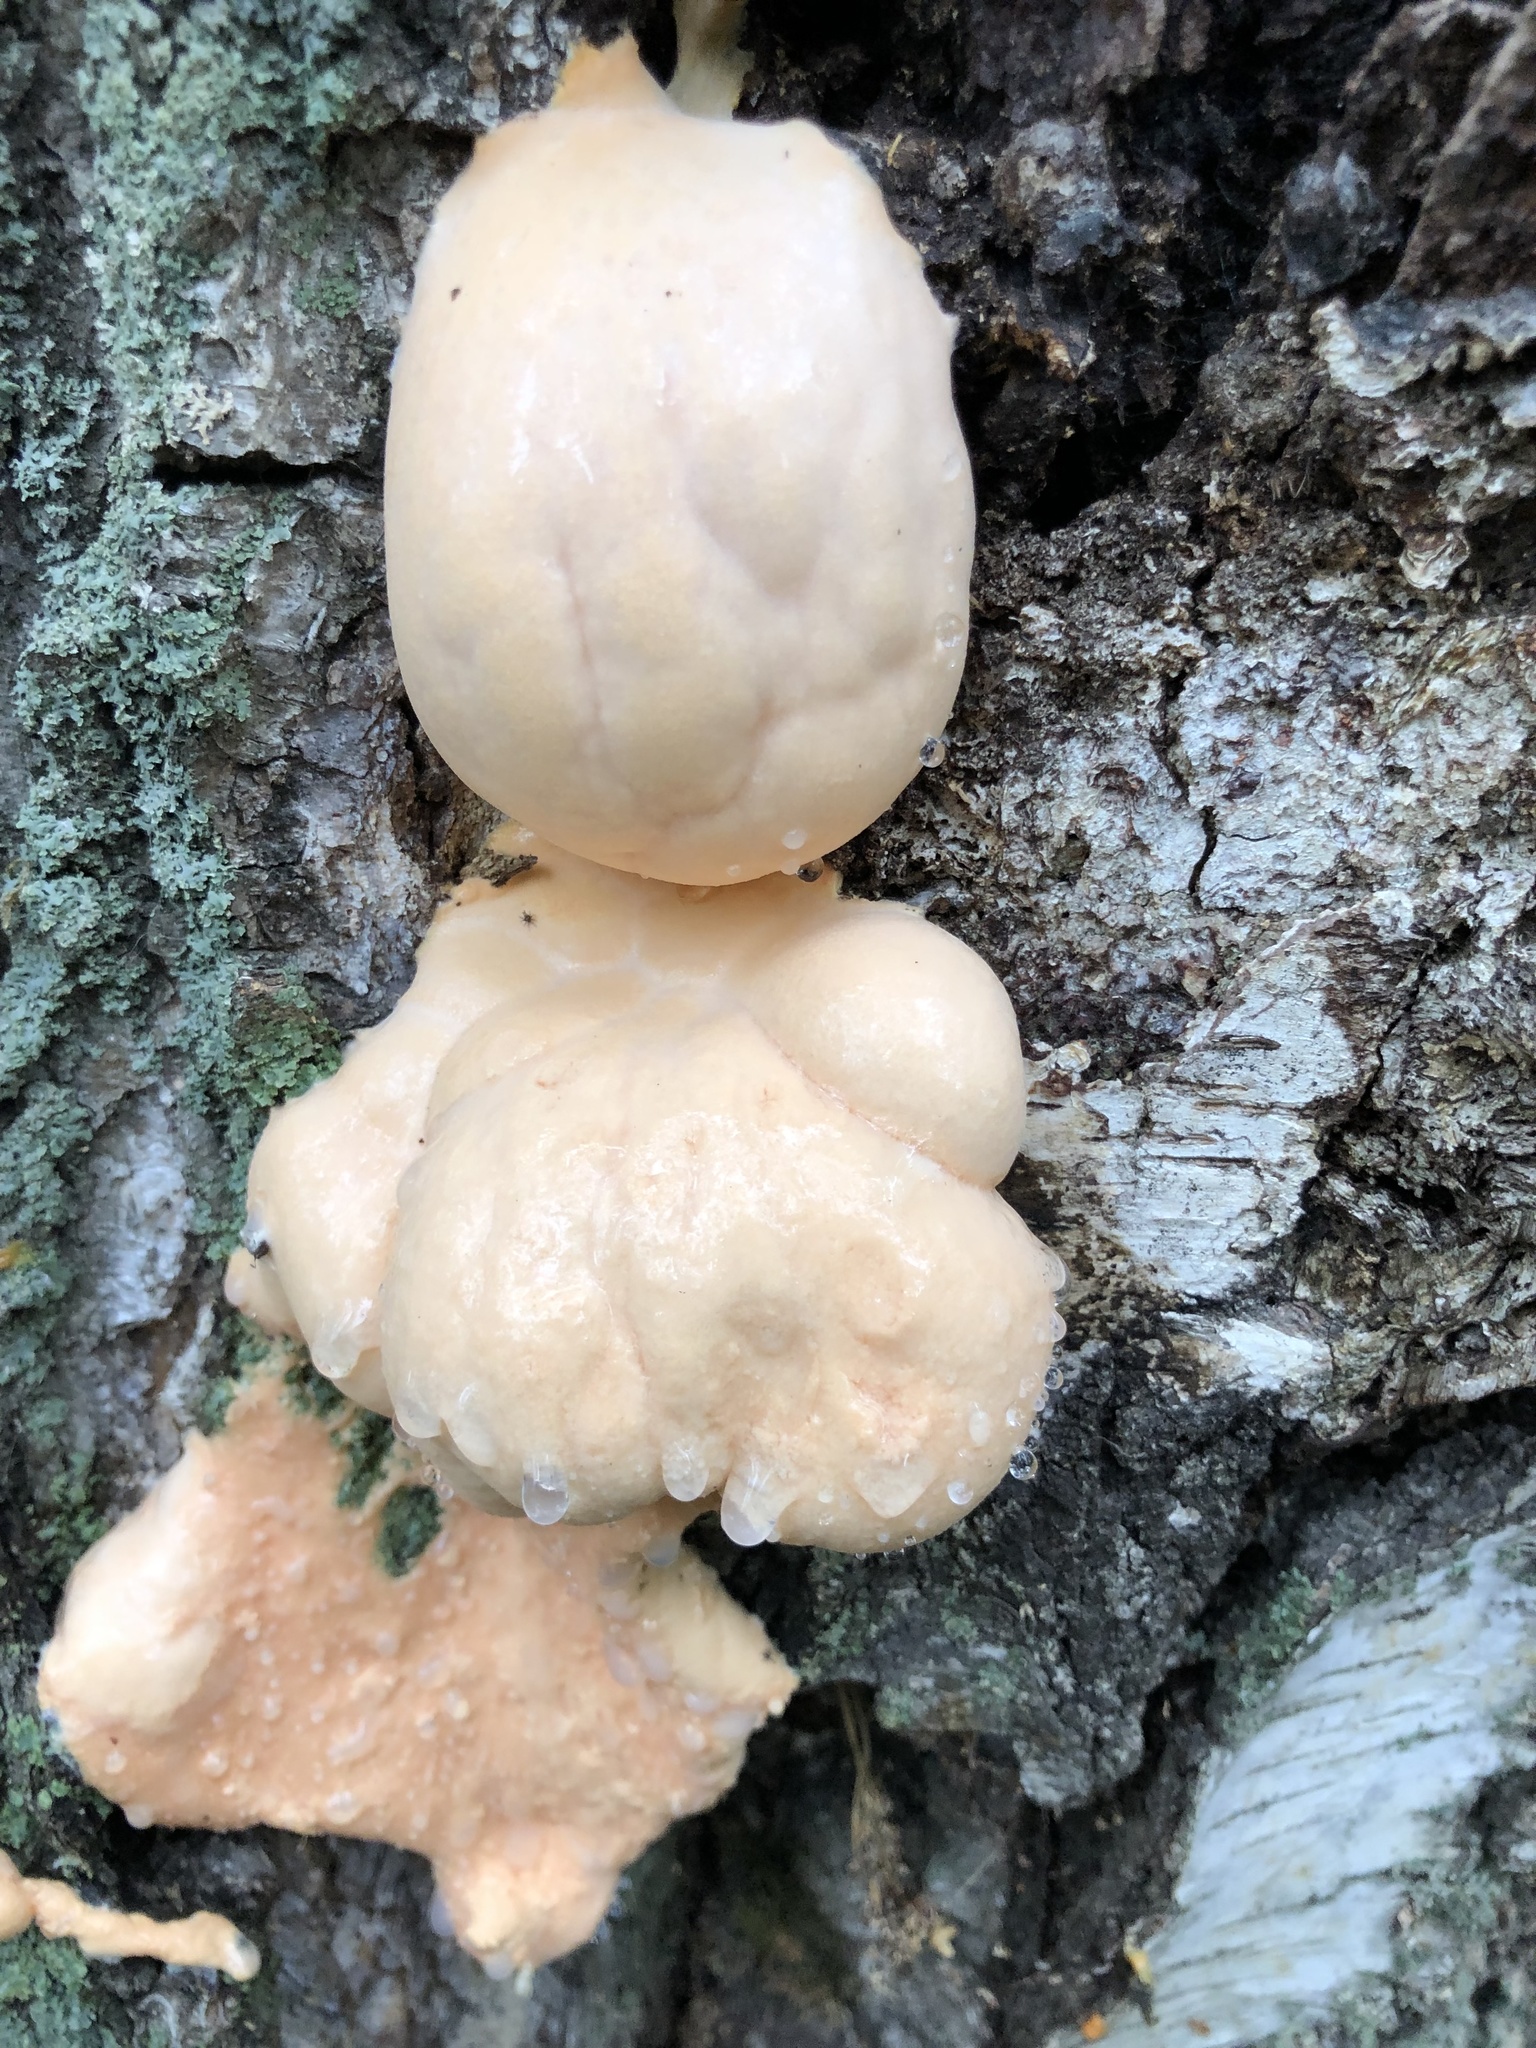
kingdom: Protozoa
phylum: Mycetozoa
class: Myxomycetes
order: Cribrariales
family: Tubiferaceae
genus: Reticularia
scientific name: Reticularia lycoperdon
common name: False puffball
